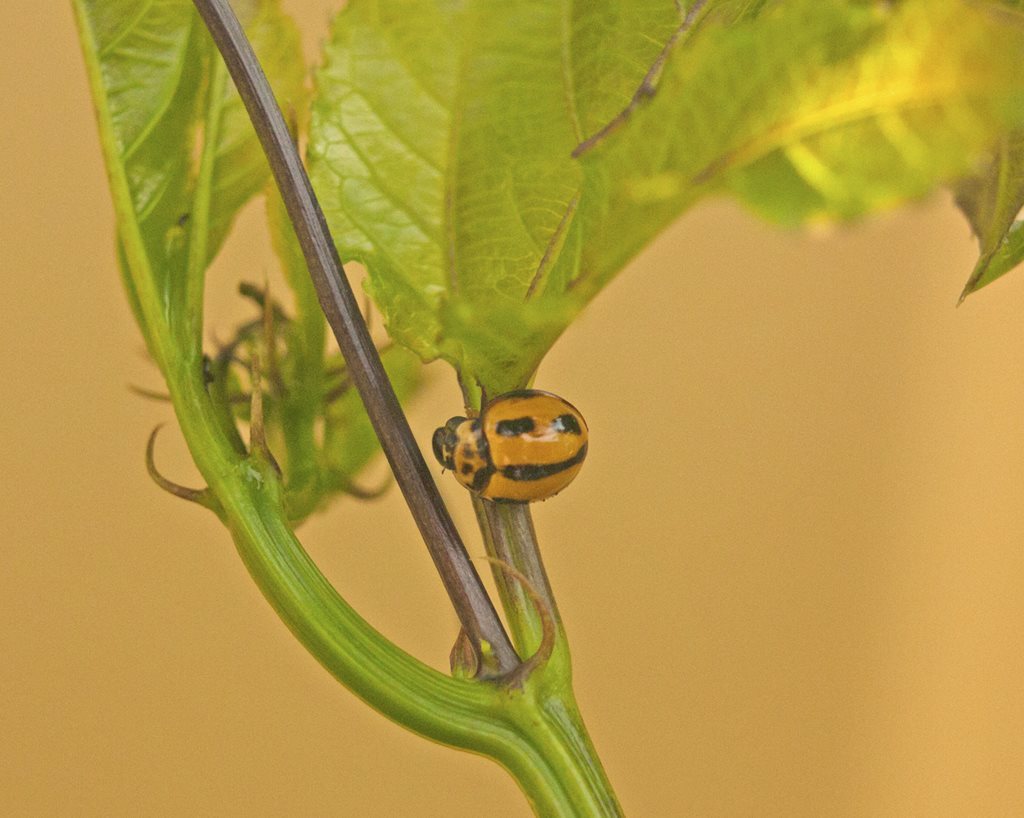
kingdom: Animalia
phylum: Arthropoda
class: Insecta
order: Coleoptera
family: Coccinellidae
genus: Coelophora
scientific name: Coelophora inaequalis
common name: Common australian lady beetle
